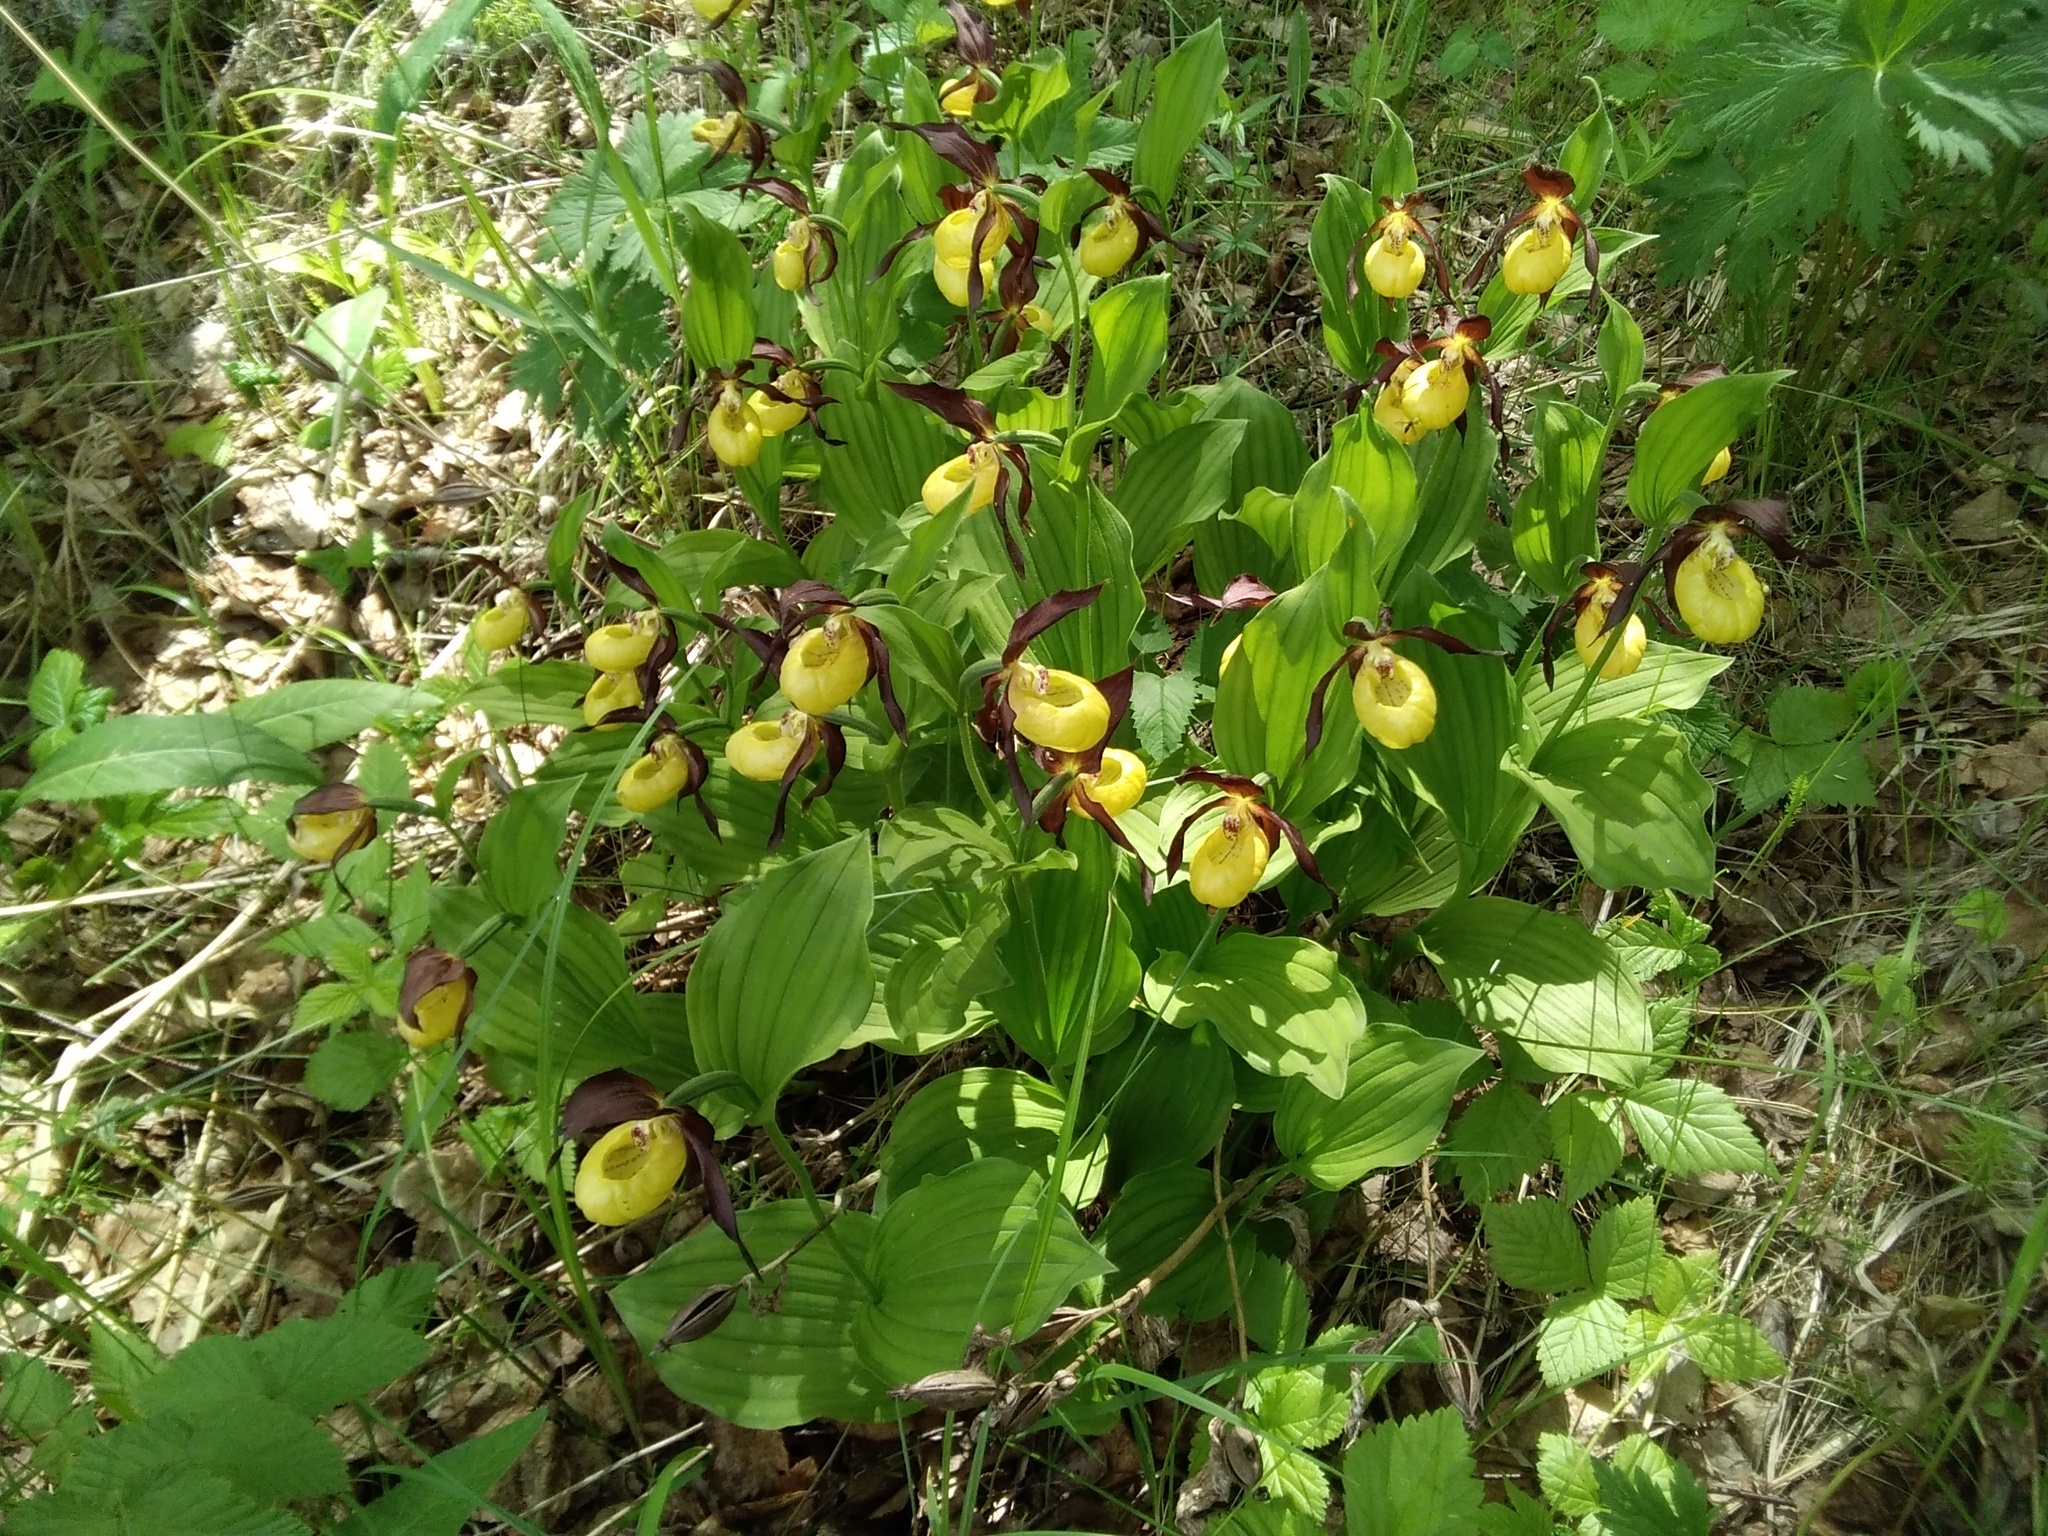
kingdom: Plantae
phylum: Tracheophyta
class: Liliopsida
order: Asparagales
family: Orchidaceae
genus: Cypripedium
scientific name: Cypripedium calceolus
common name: Lady's-slipper
